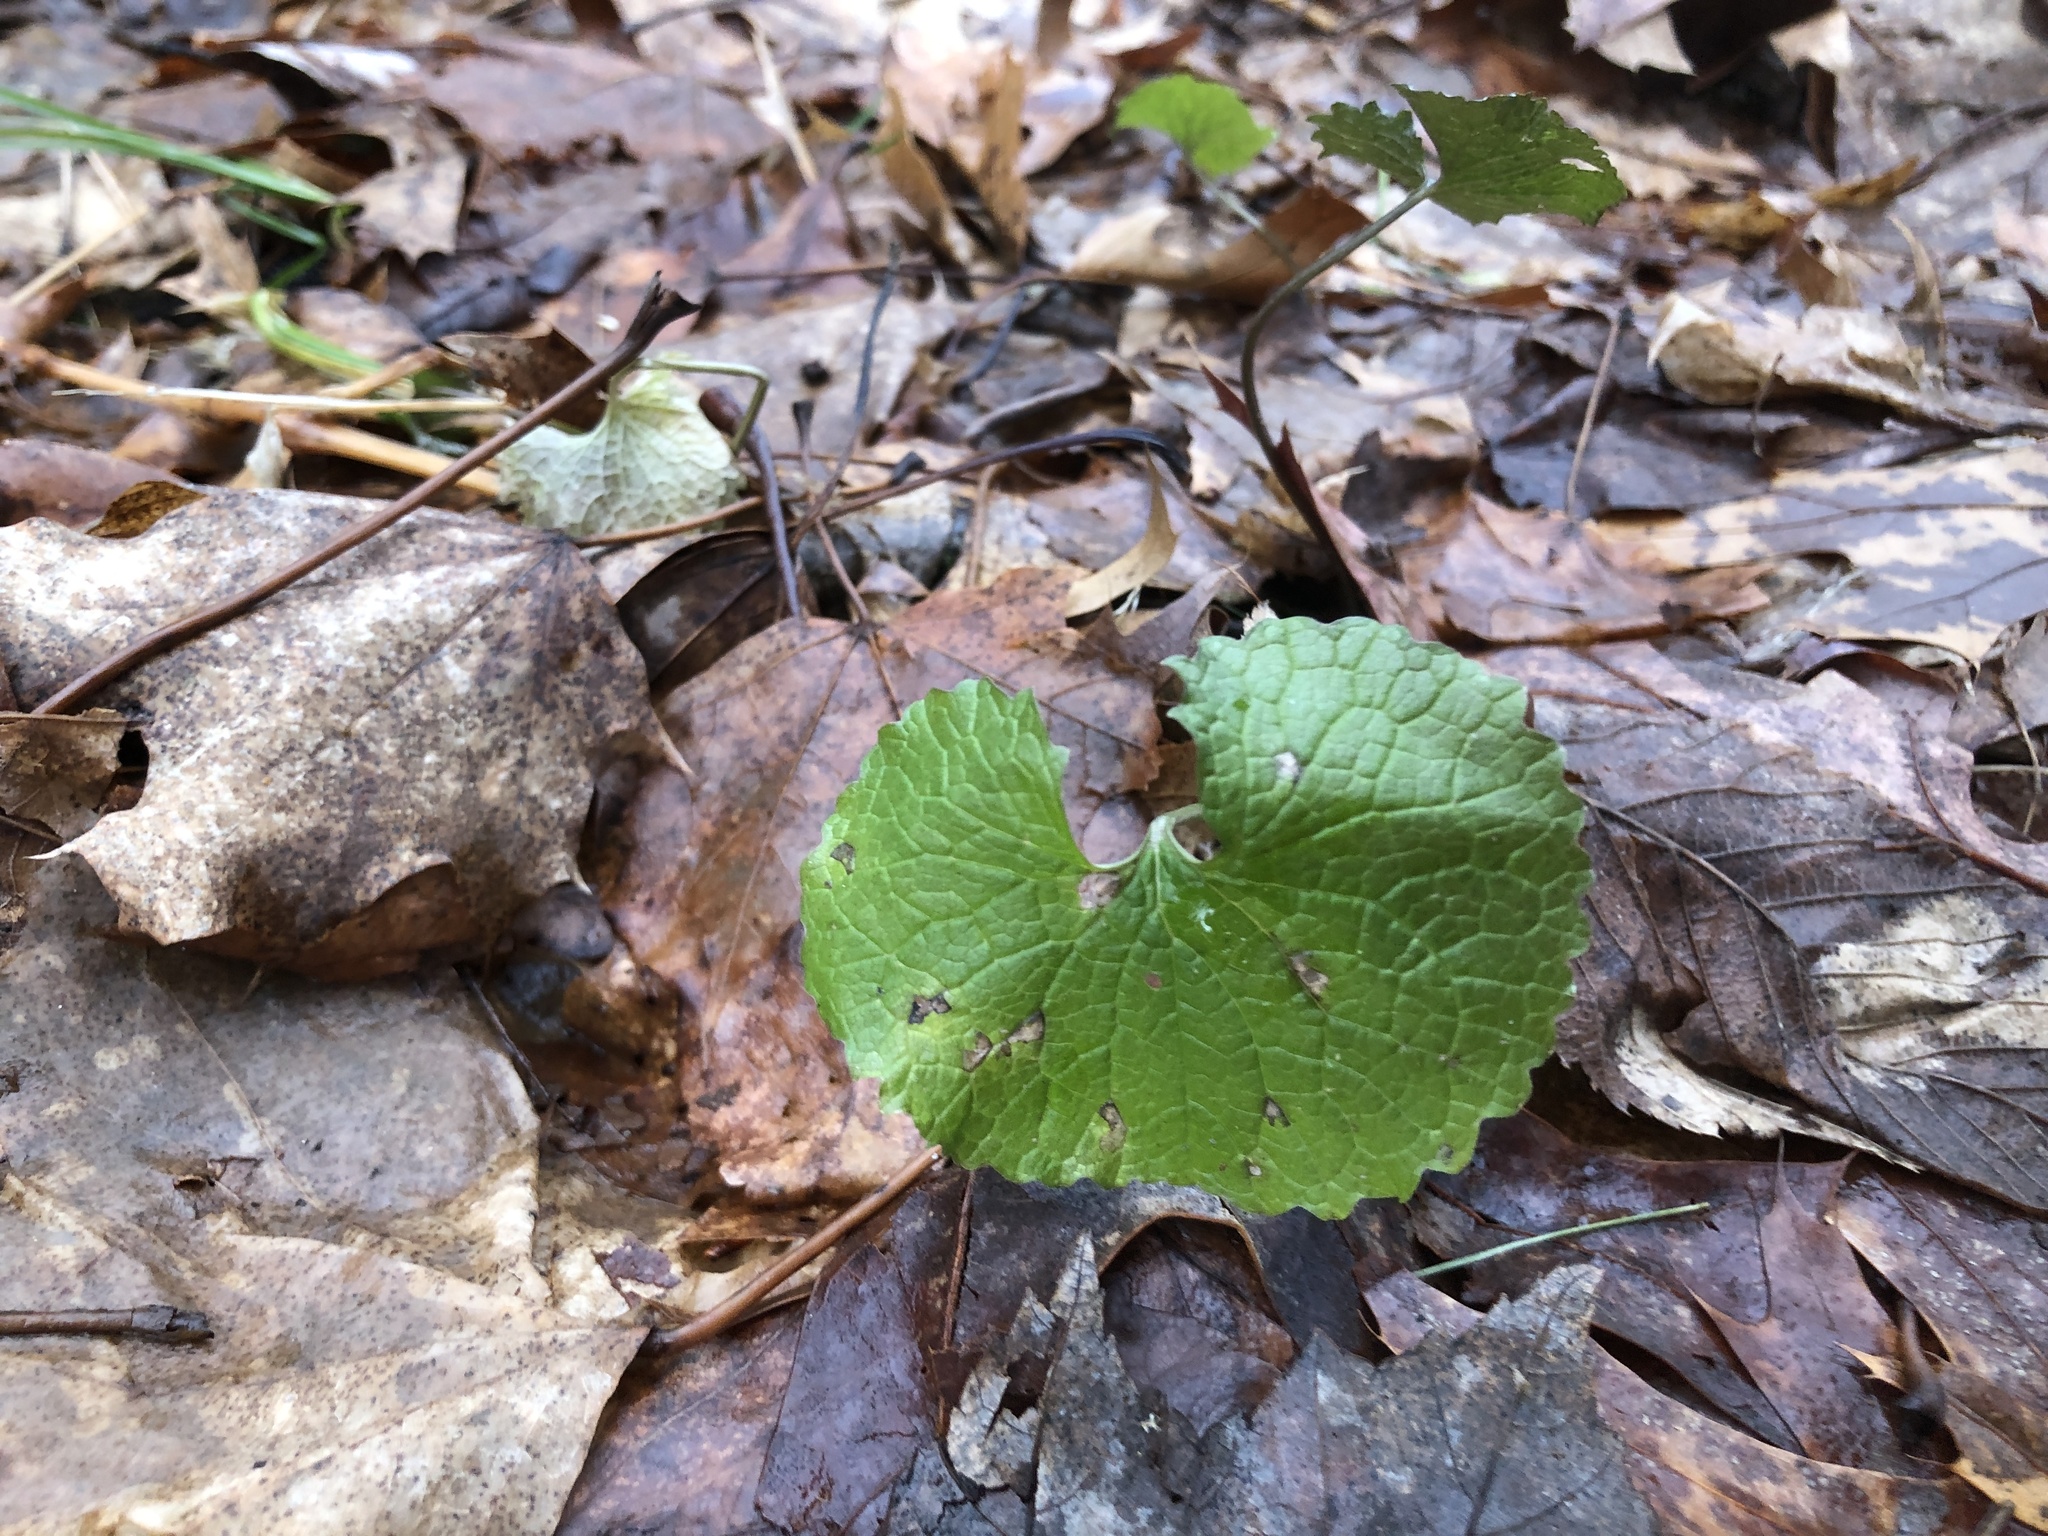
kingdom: Plantae
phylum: Tracheophyta
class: Magnoliopsida
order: Brassicales
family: Brassicaceae
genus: Alliaria
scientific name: Alliaria petiolata
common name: Garlic mustard
